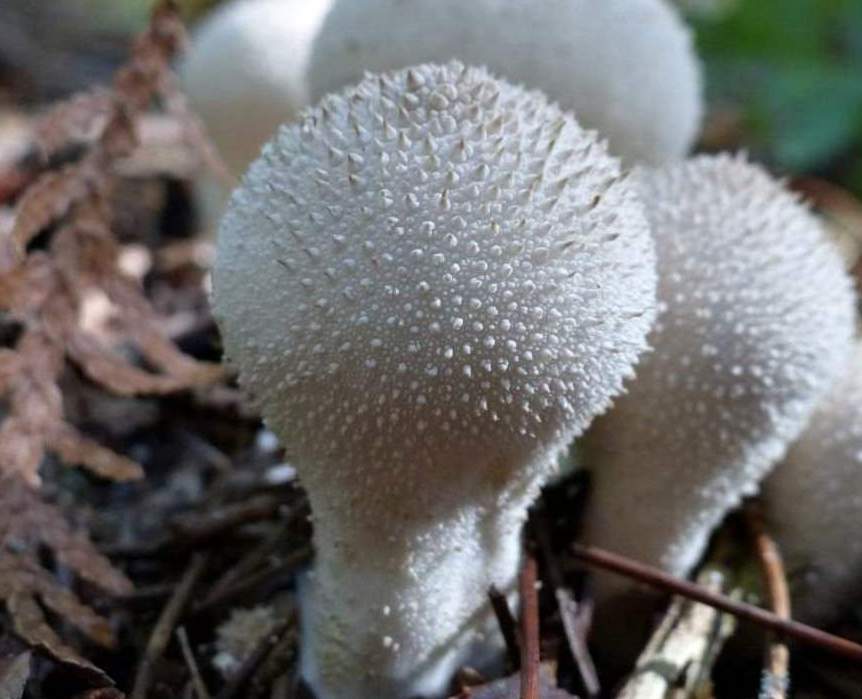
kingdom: Fungi
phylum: Basidiomycota
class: Agaricomycetes
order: Agaricales
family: Lycoperdaceae
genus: Lycoperdon
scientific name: Lycoperdon perlatum
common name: Common puffball
